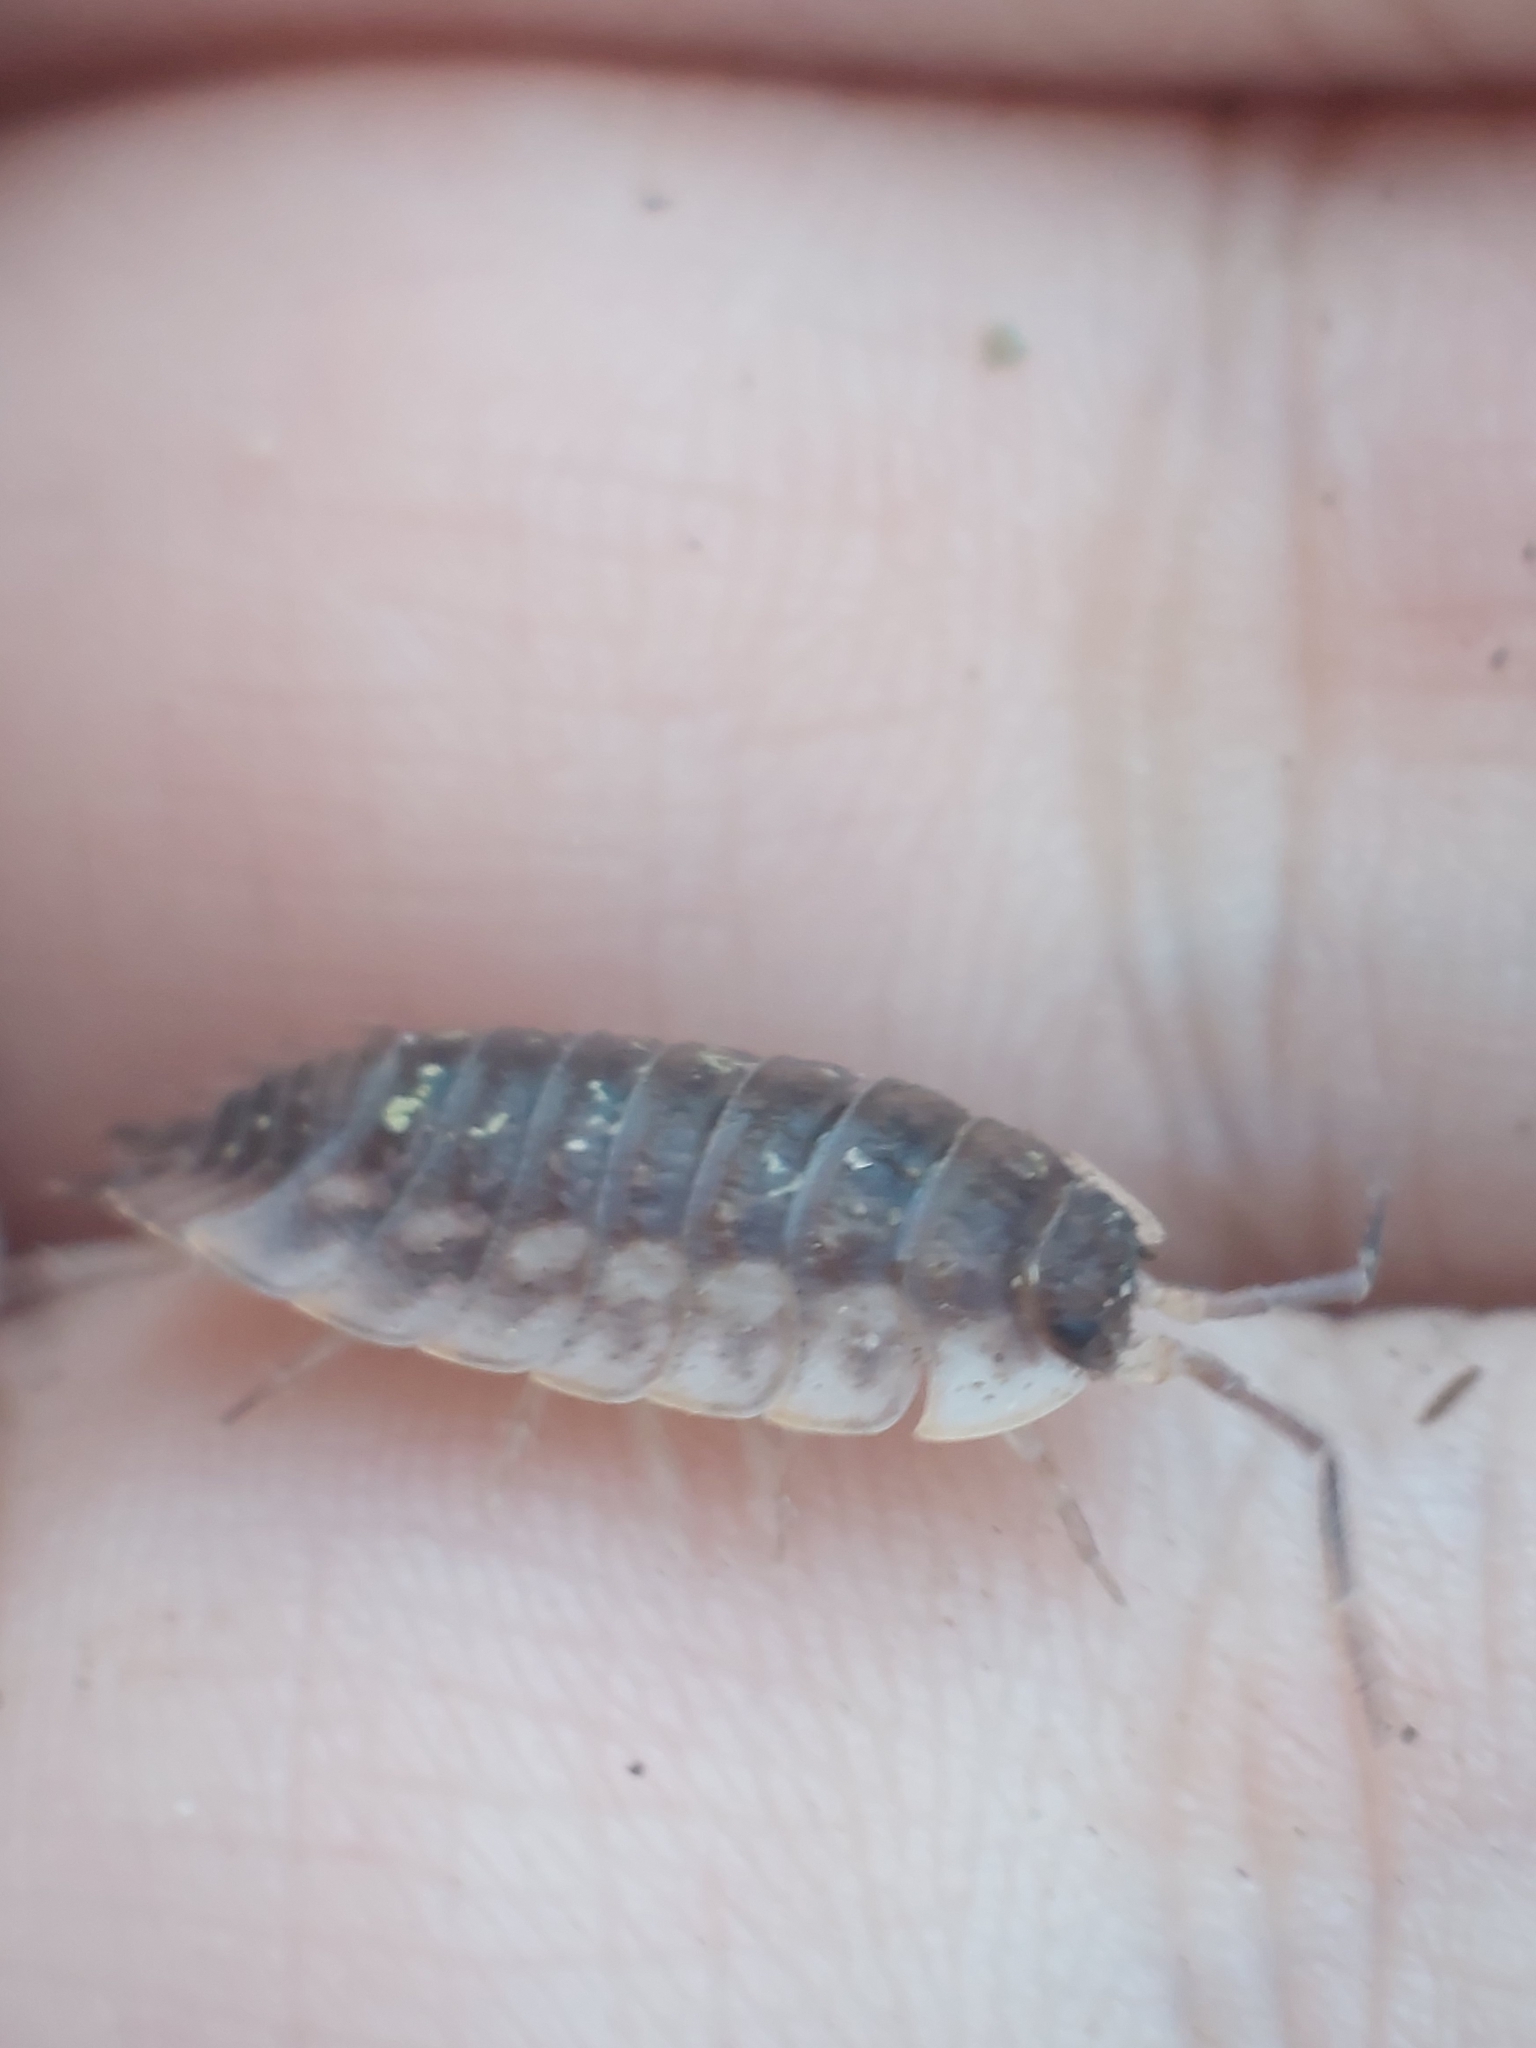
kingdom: Animalia
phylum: Arthropoda
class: Malacostraca
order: Isopoda
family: Oniscidae
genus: Oniscus
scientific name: Oniscus asellus
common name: Common shiny woodlouse
